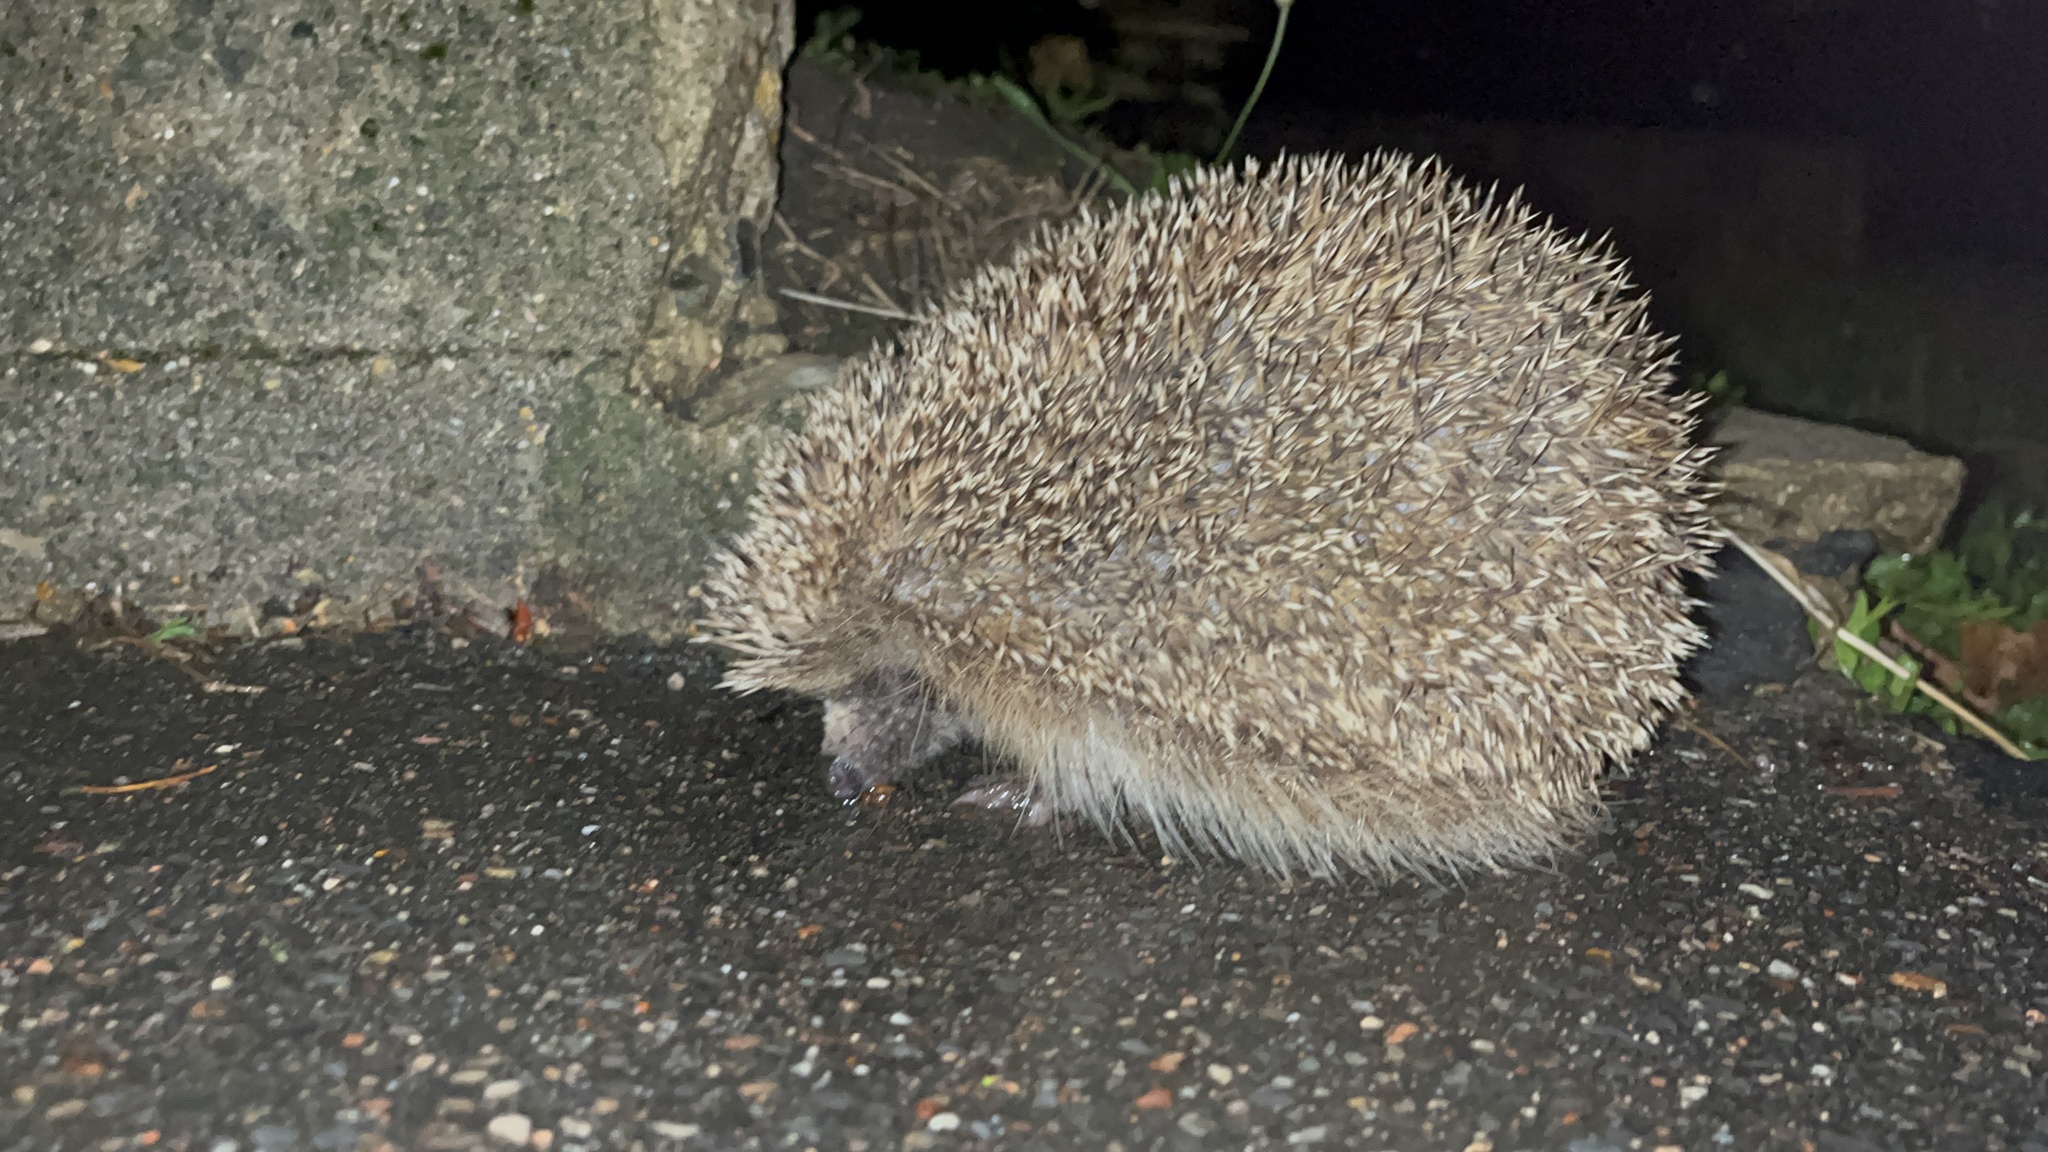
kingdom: Animalia
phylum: Chordata
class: Mammalia
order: Erinaceomorpha
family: Erinaceidae
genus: Erinaceus
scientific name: Erinaceus europaeus
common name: West european hedgehog
